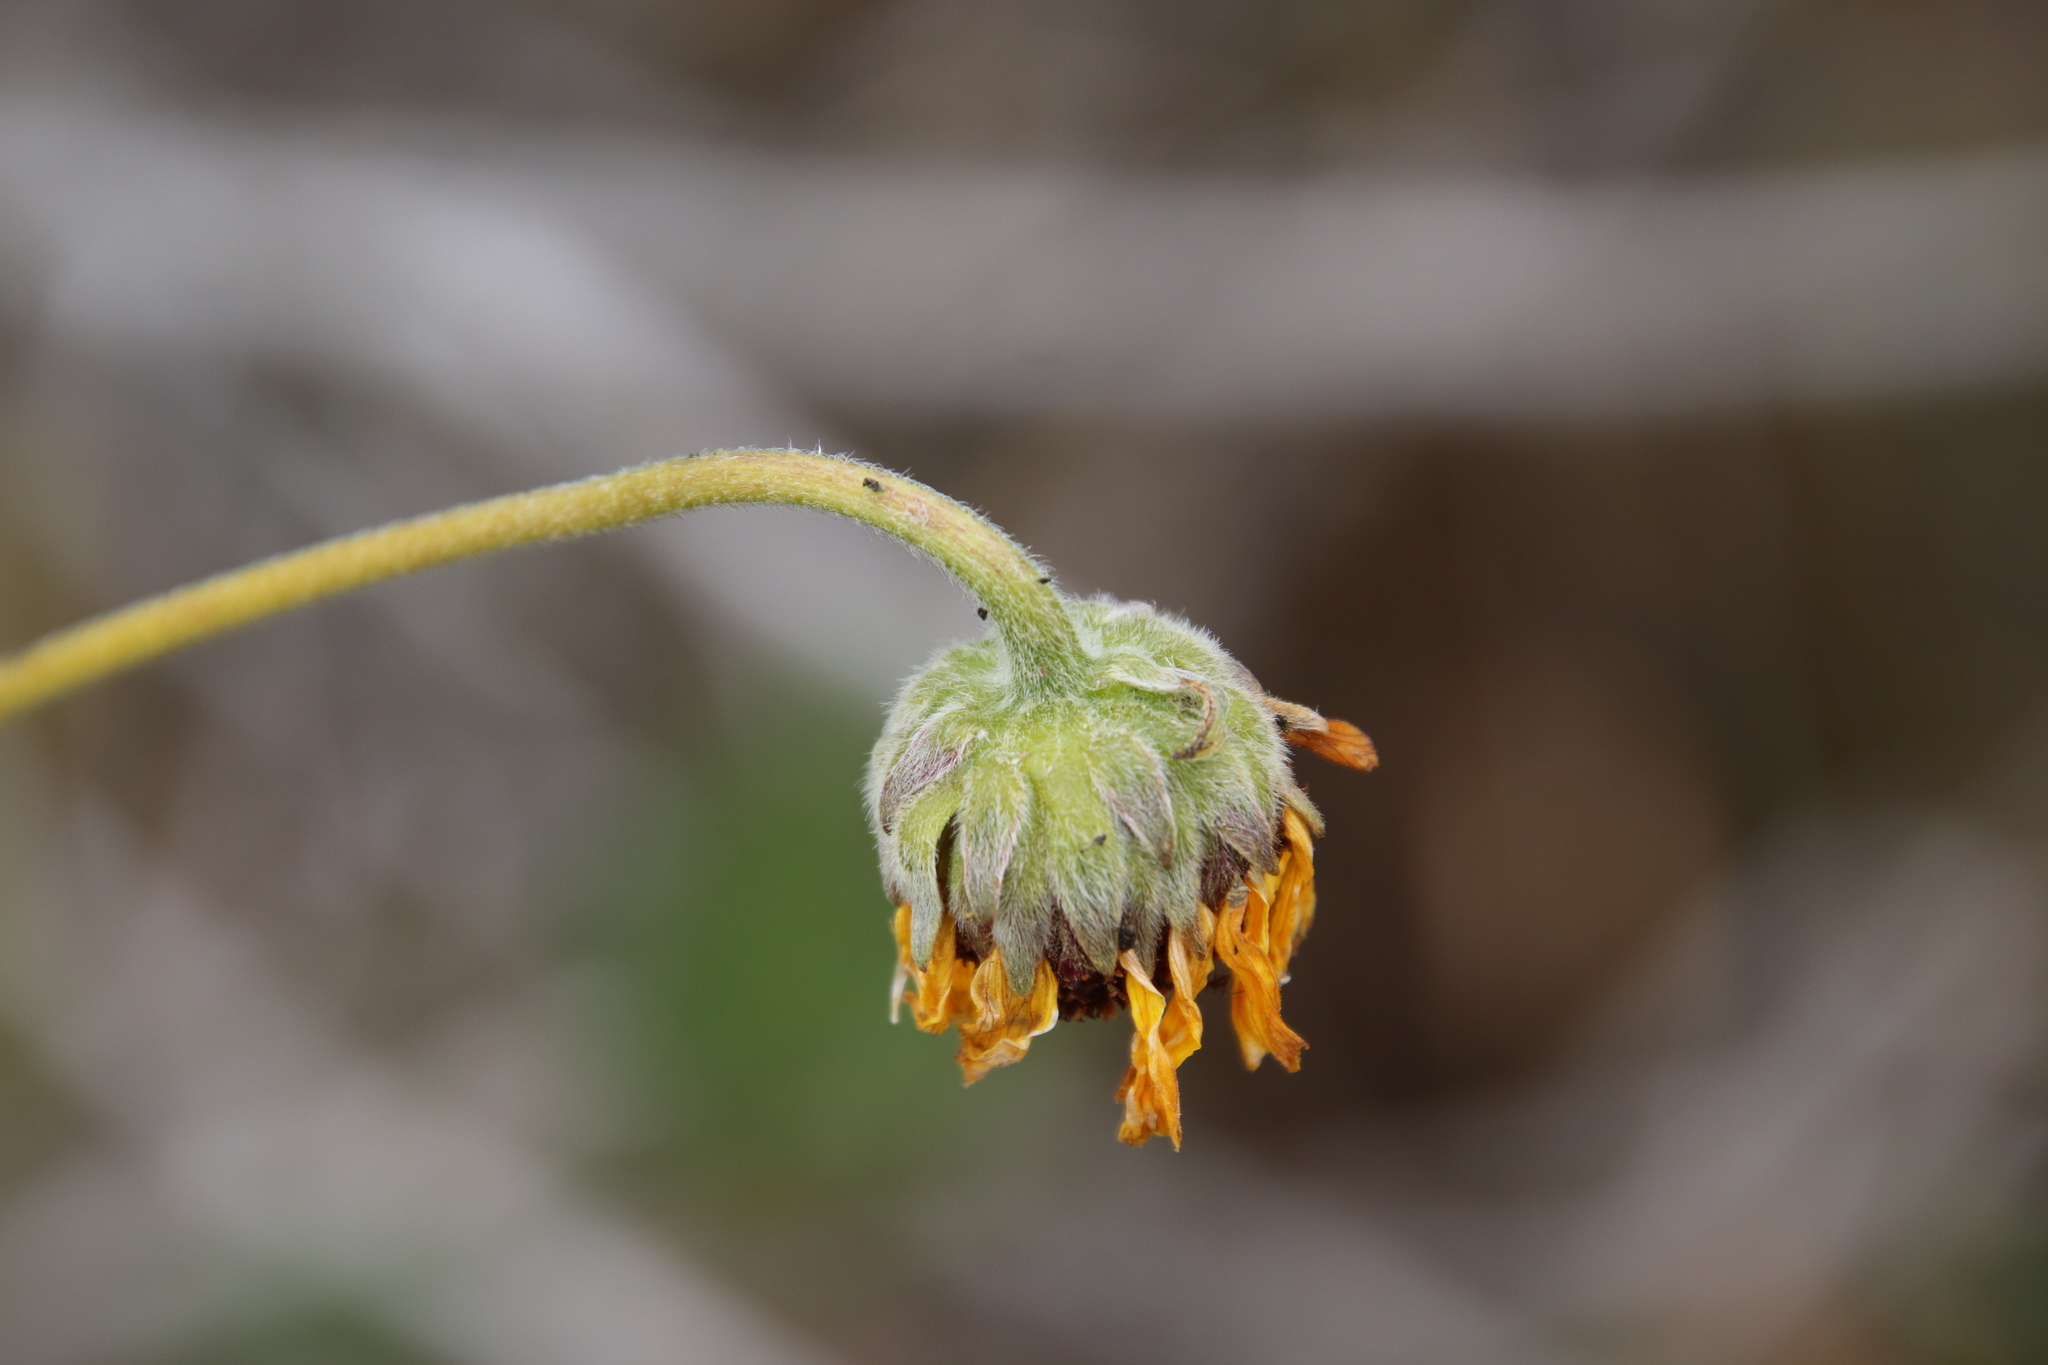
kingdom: Plantae
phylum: Tracheophyta
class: Magnoliopsida
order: Asterales
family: Asteraceae
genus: Encelia
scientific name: Encelia californica
